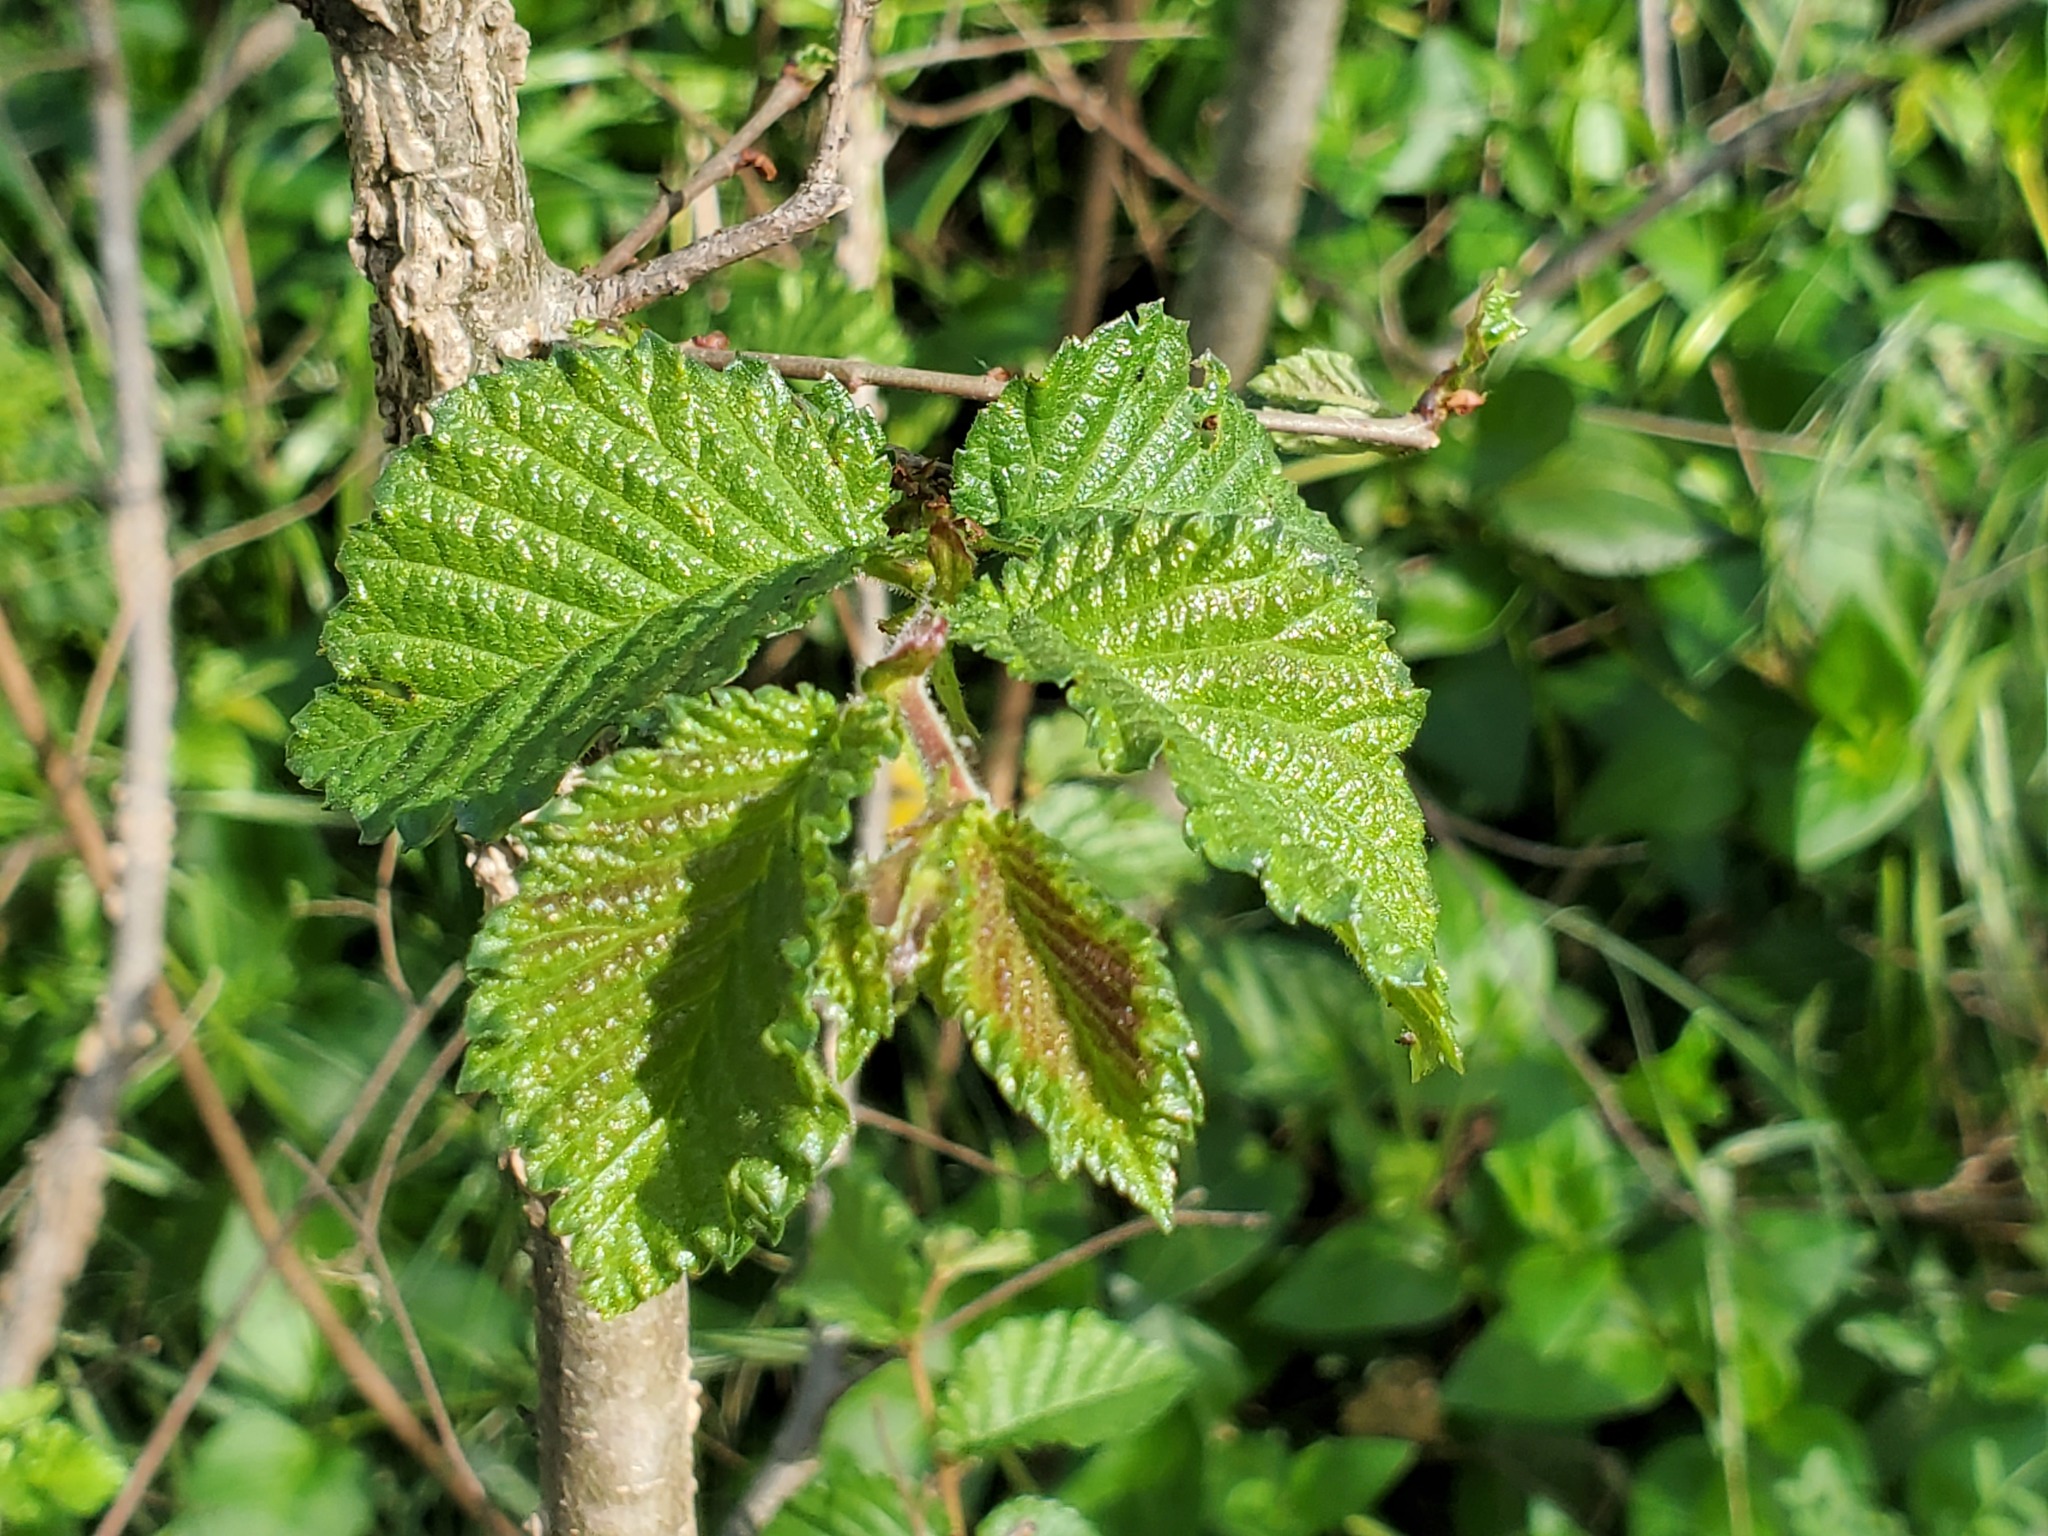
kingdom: Plantae
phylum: Tracheophyta
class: Magnoliopsida
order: Rosales
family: Ulmaceae
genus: Ulmus
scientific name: Ulmus minor
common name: Small-leaved elm
